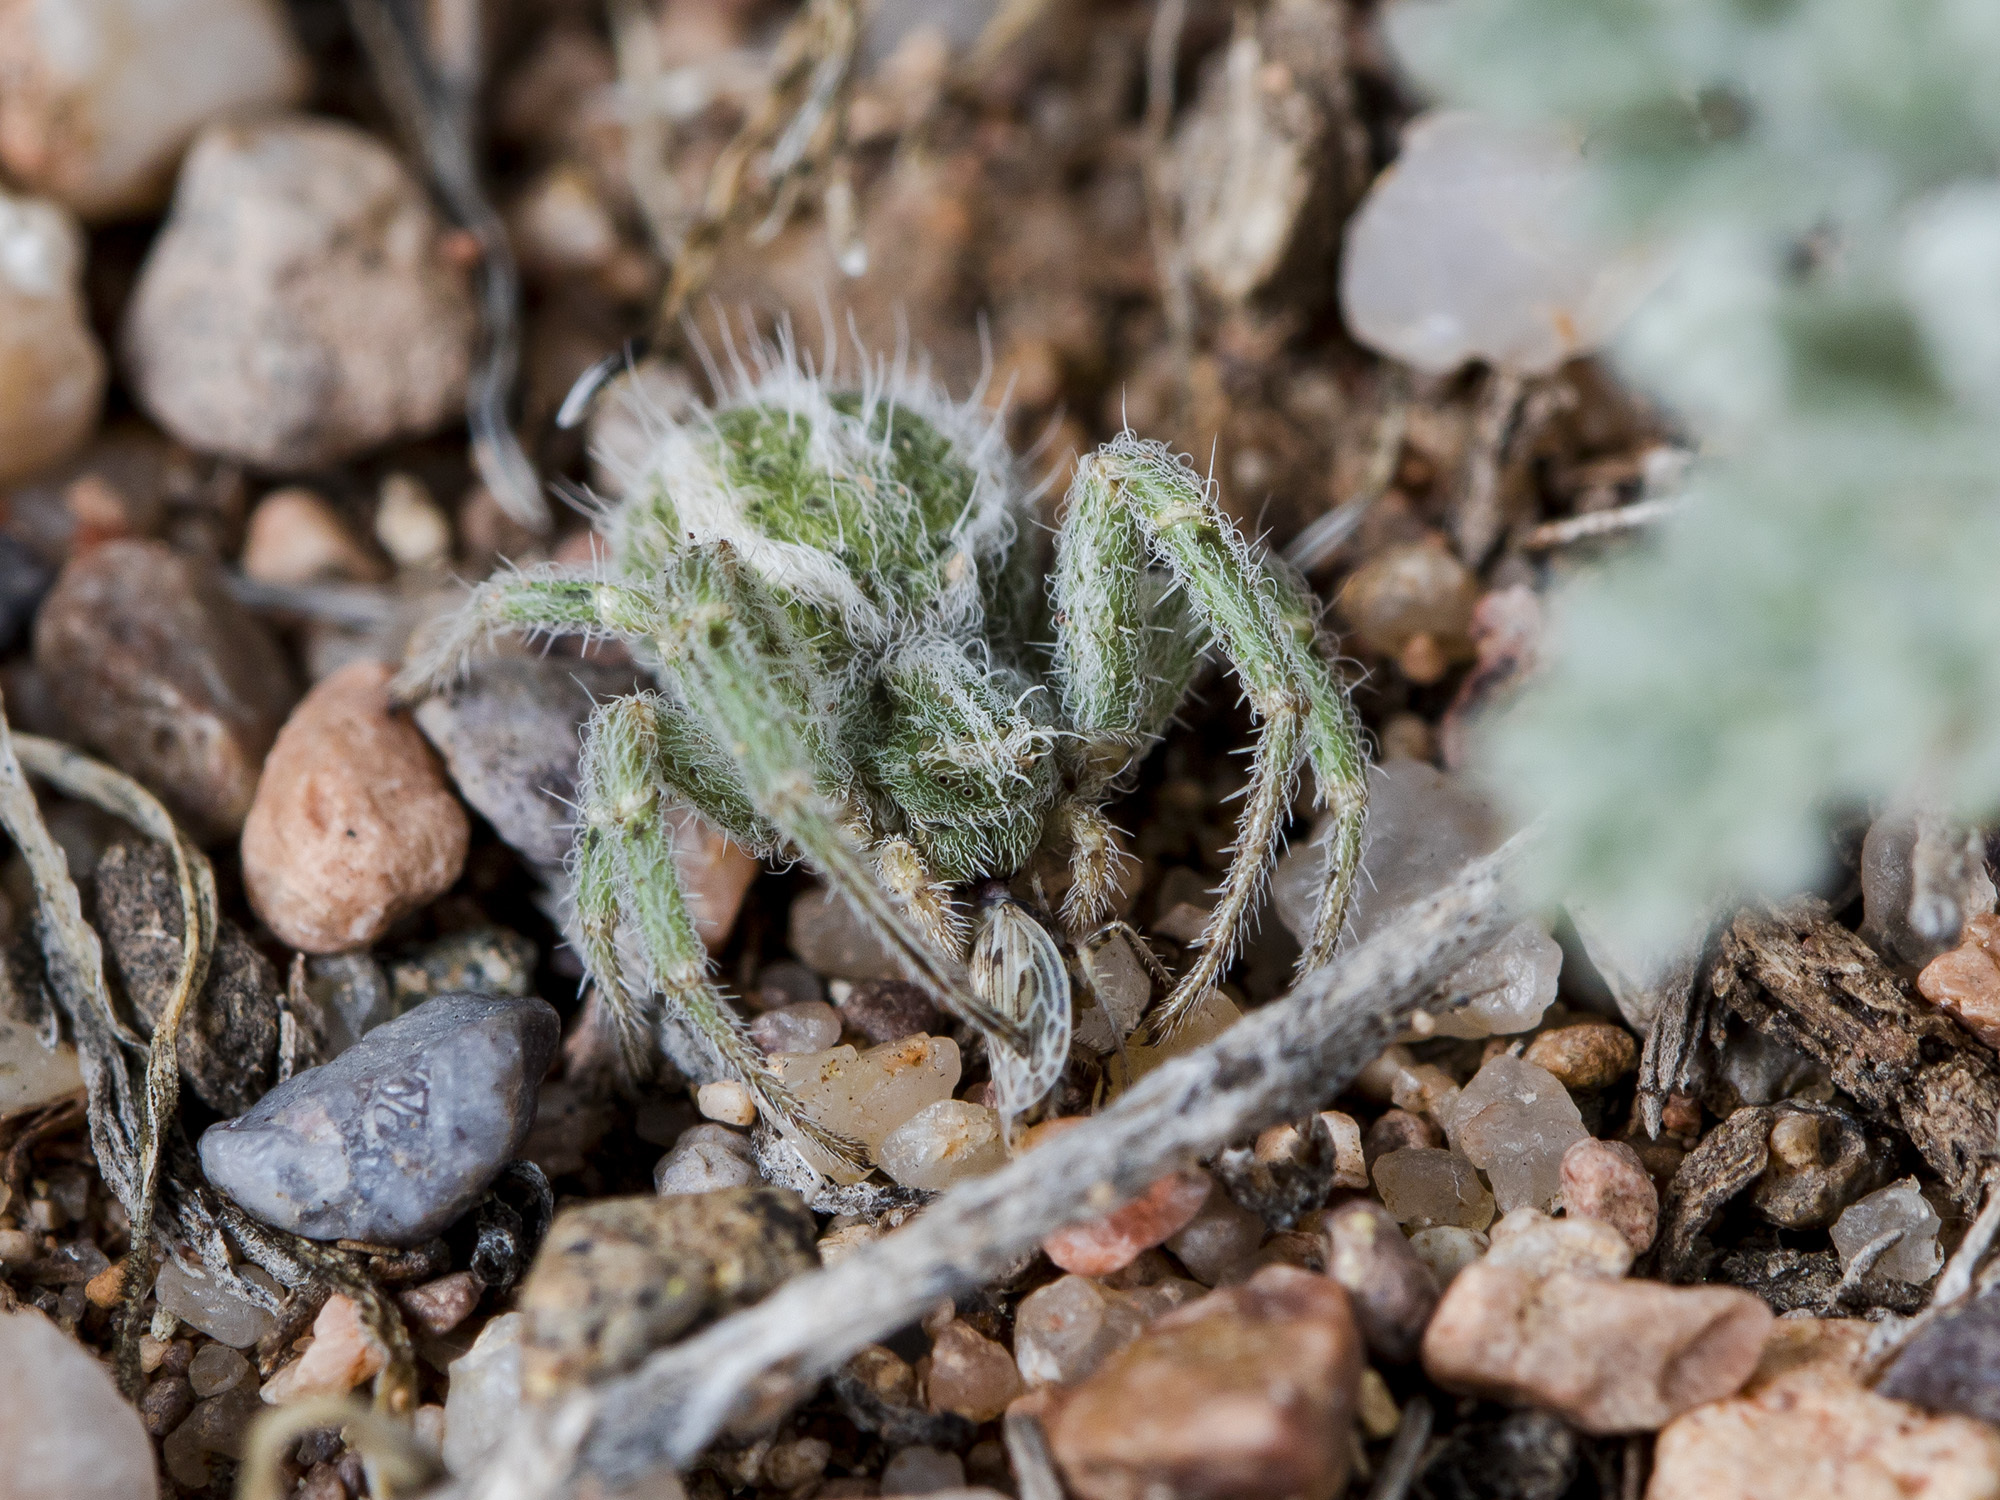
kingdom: Animalia
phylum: Arthropoda
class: Arachnida
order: Araneae
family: Thomisidae
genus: Heriaeus
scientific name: Heriaeus horridus
